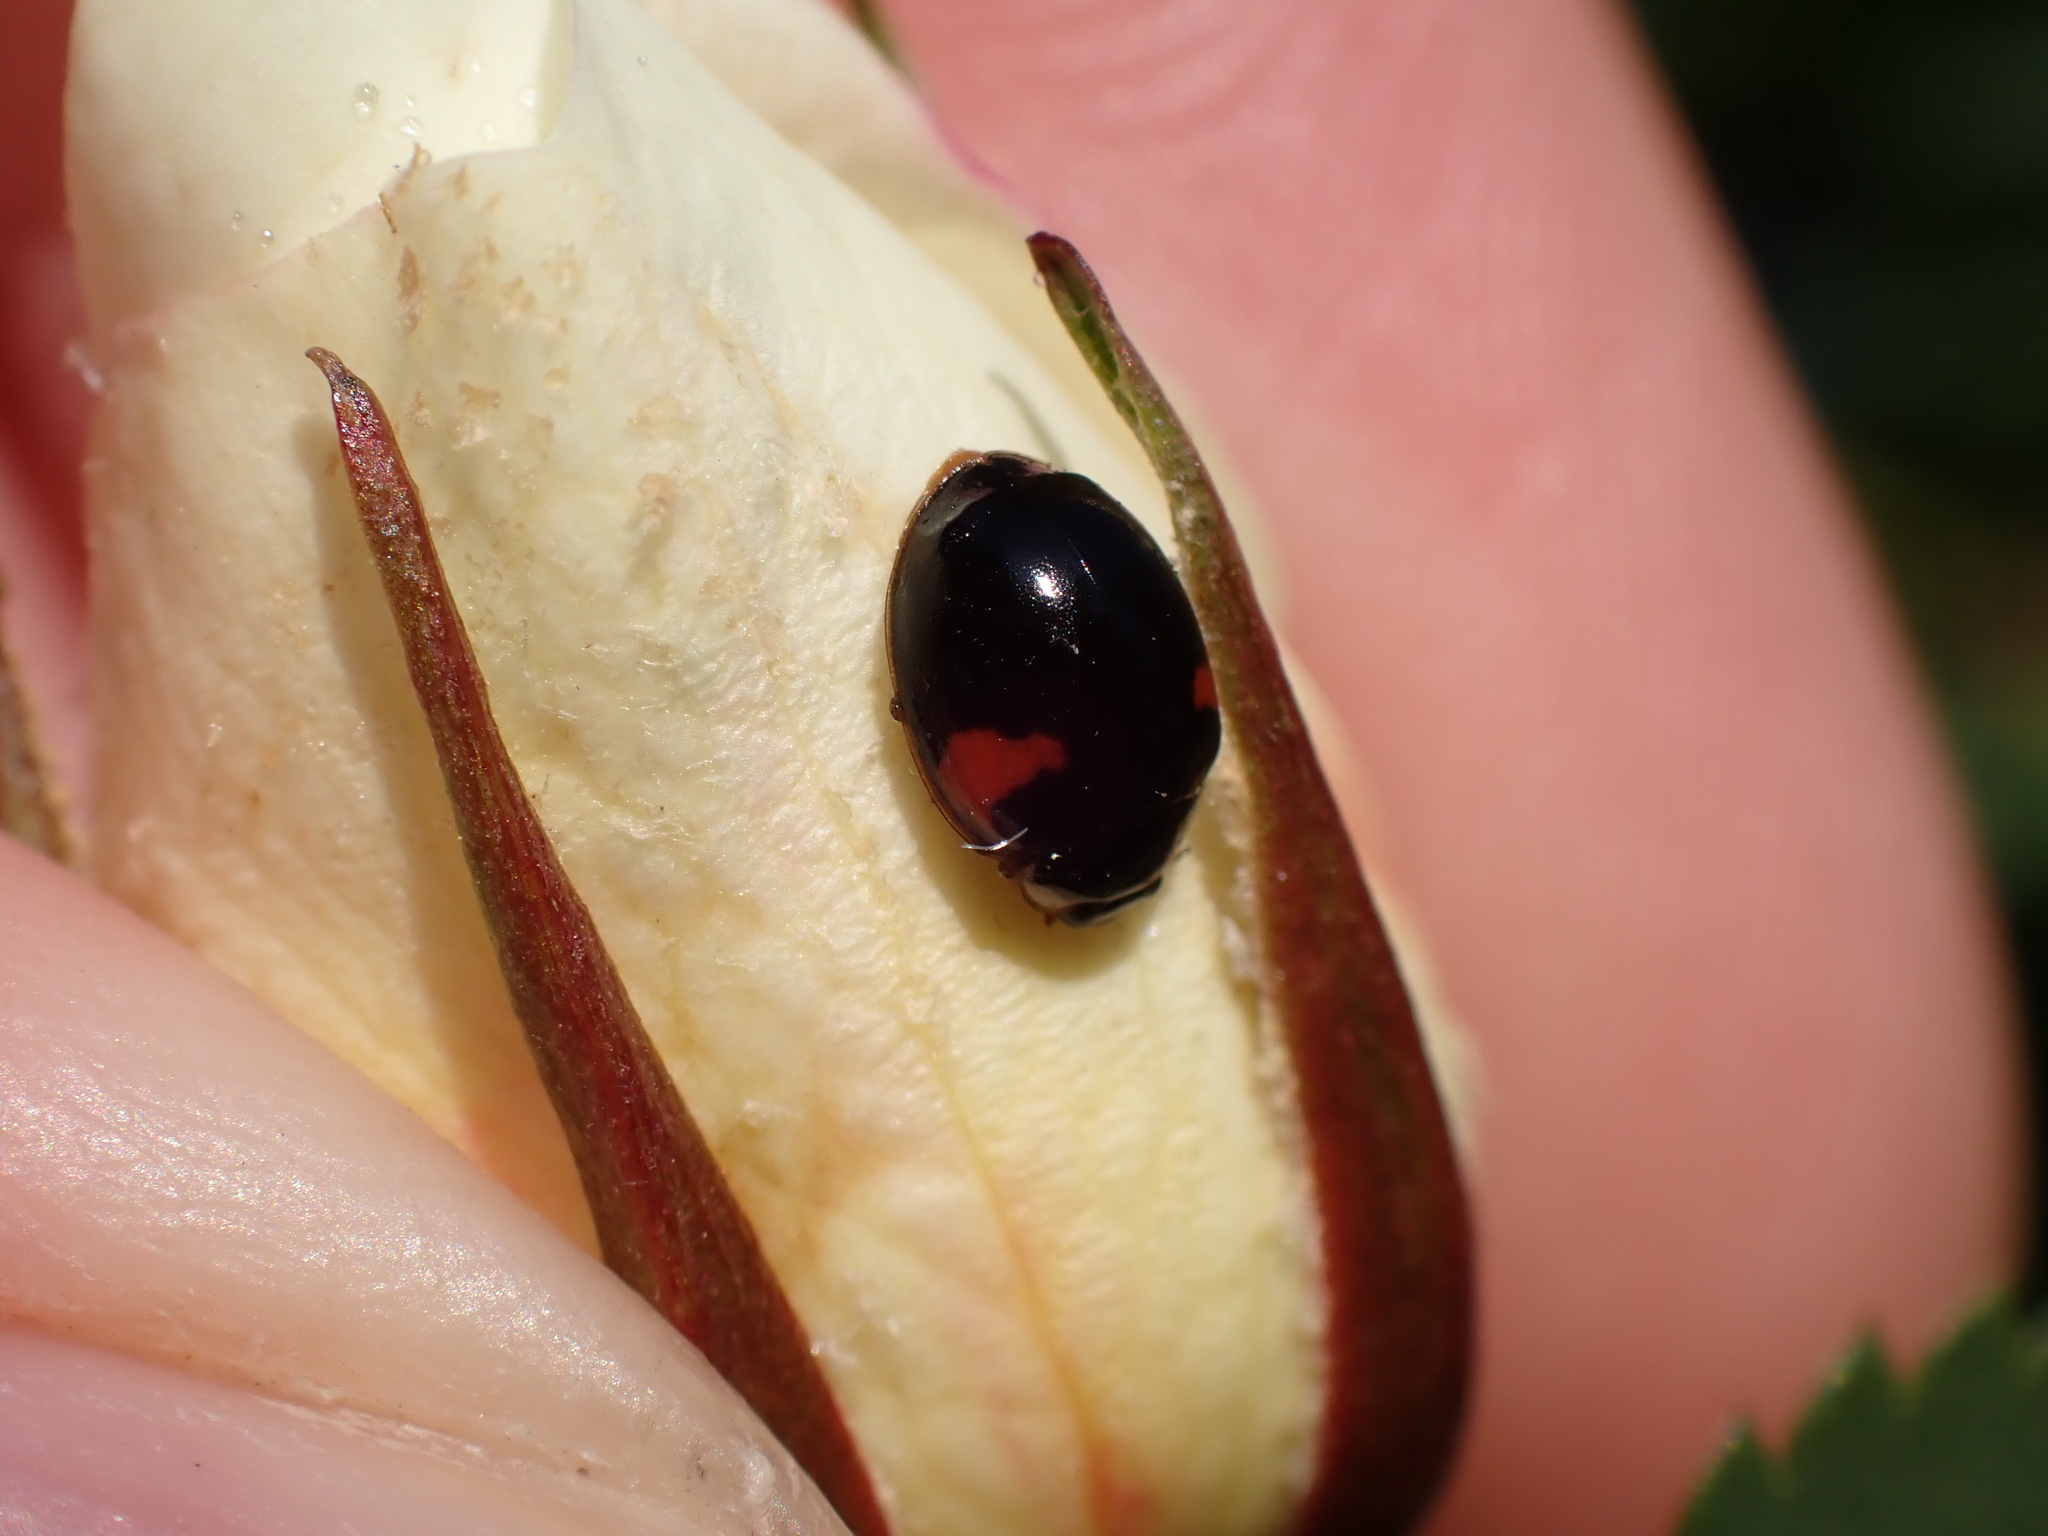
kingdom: Animalia
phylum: Arthropoda
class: Insecta
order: Coleoptera
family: Coccinellidae
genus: Adalia
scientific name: Adalia decempunctata
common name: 10-spot ladybird
